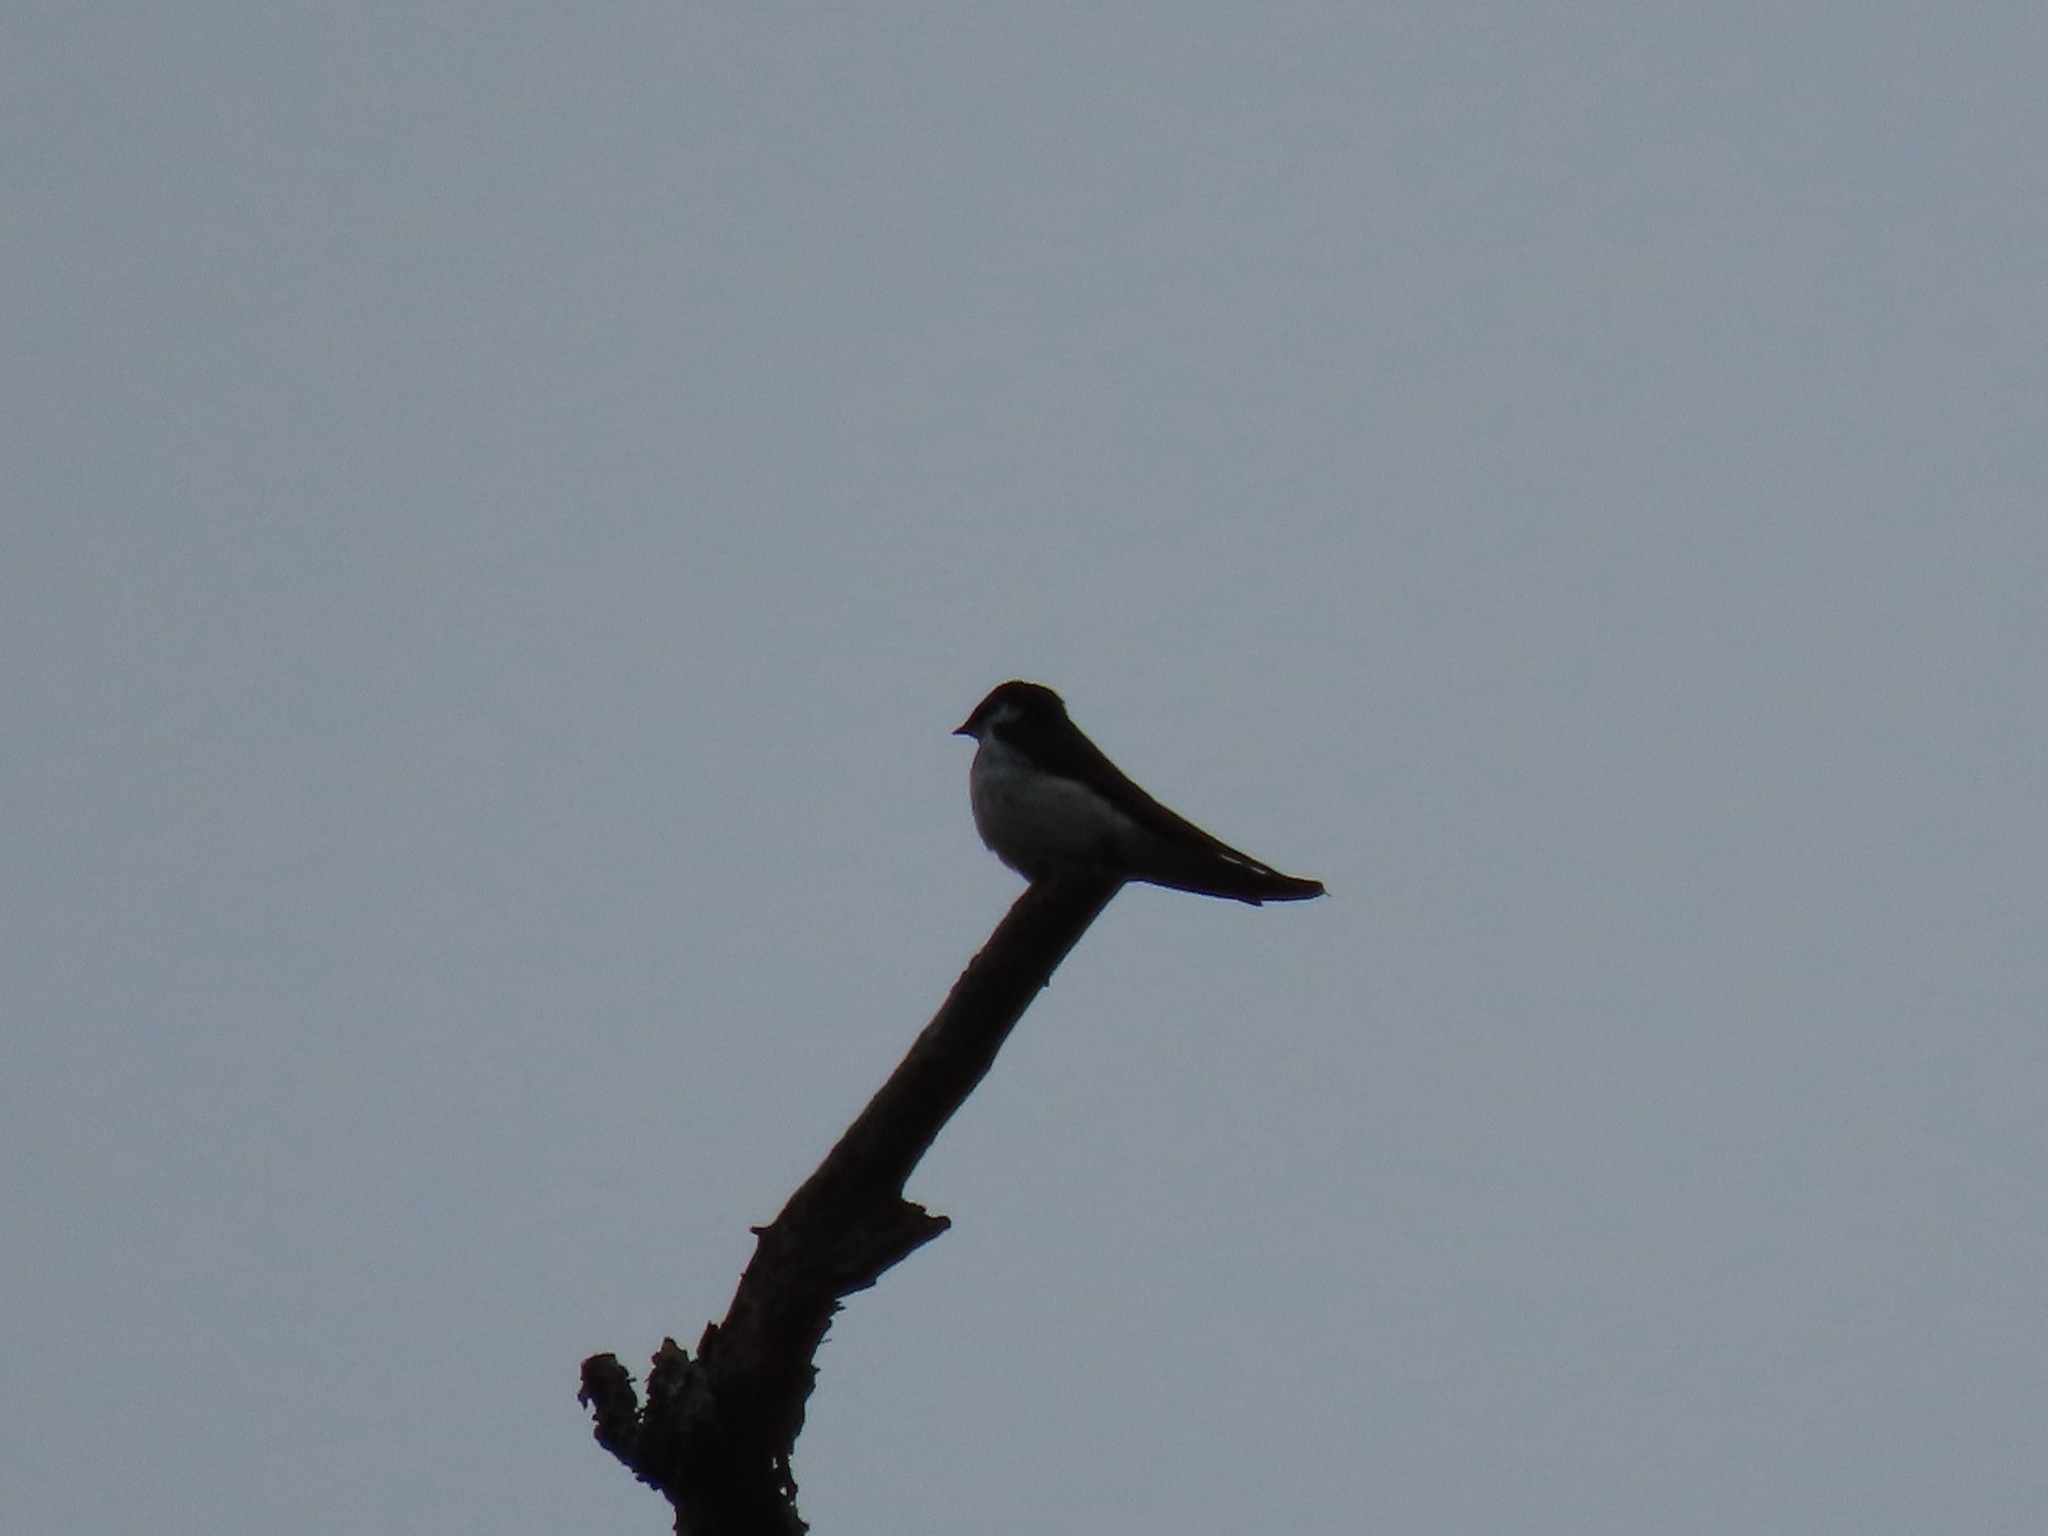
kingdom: Animalia
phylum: Chordata
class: Aves
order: Passeriformes
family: Hirundinidae
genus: Tachycineta
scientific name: Tachycineta thalassina
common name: Violet-green swallow
